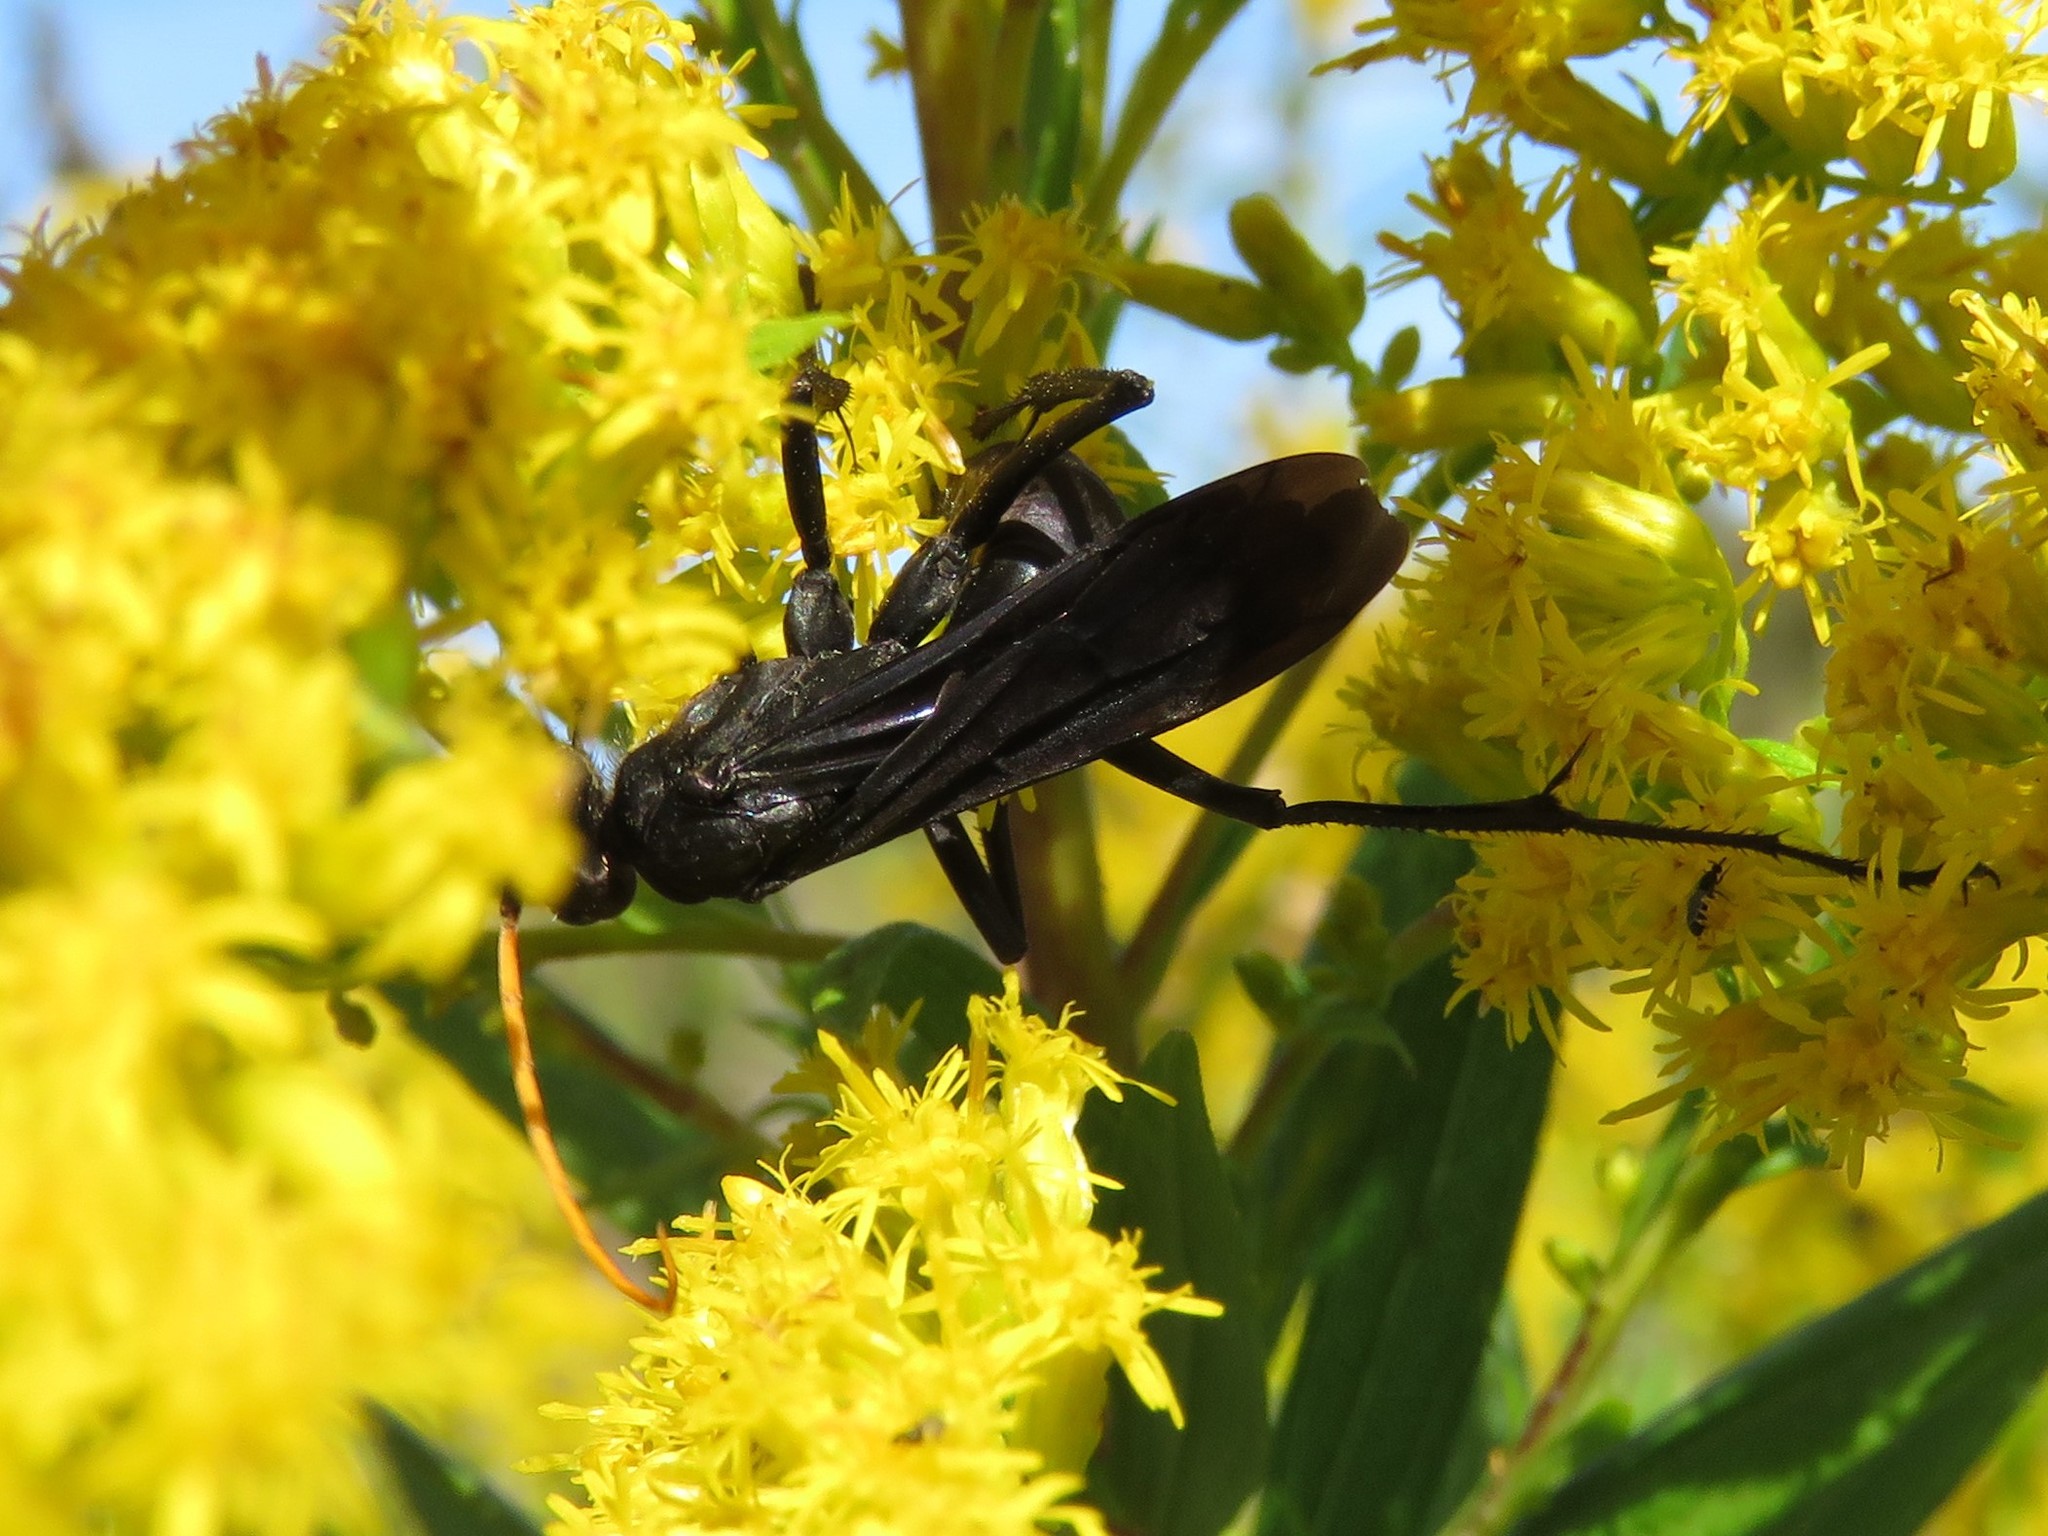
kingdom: Animalia
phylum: Arthropoda
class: Insecta
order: Hymenoptera
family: Pompilidae
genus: Entypus
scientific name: Entypus
